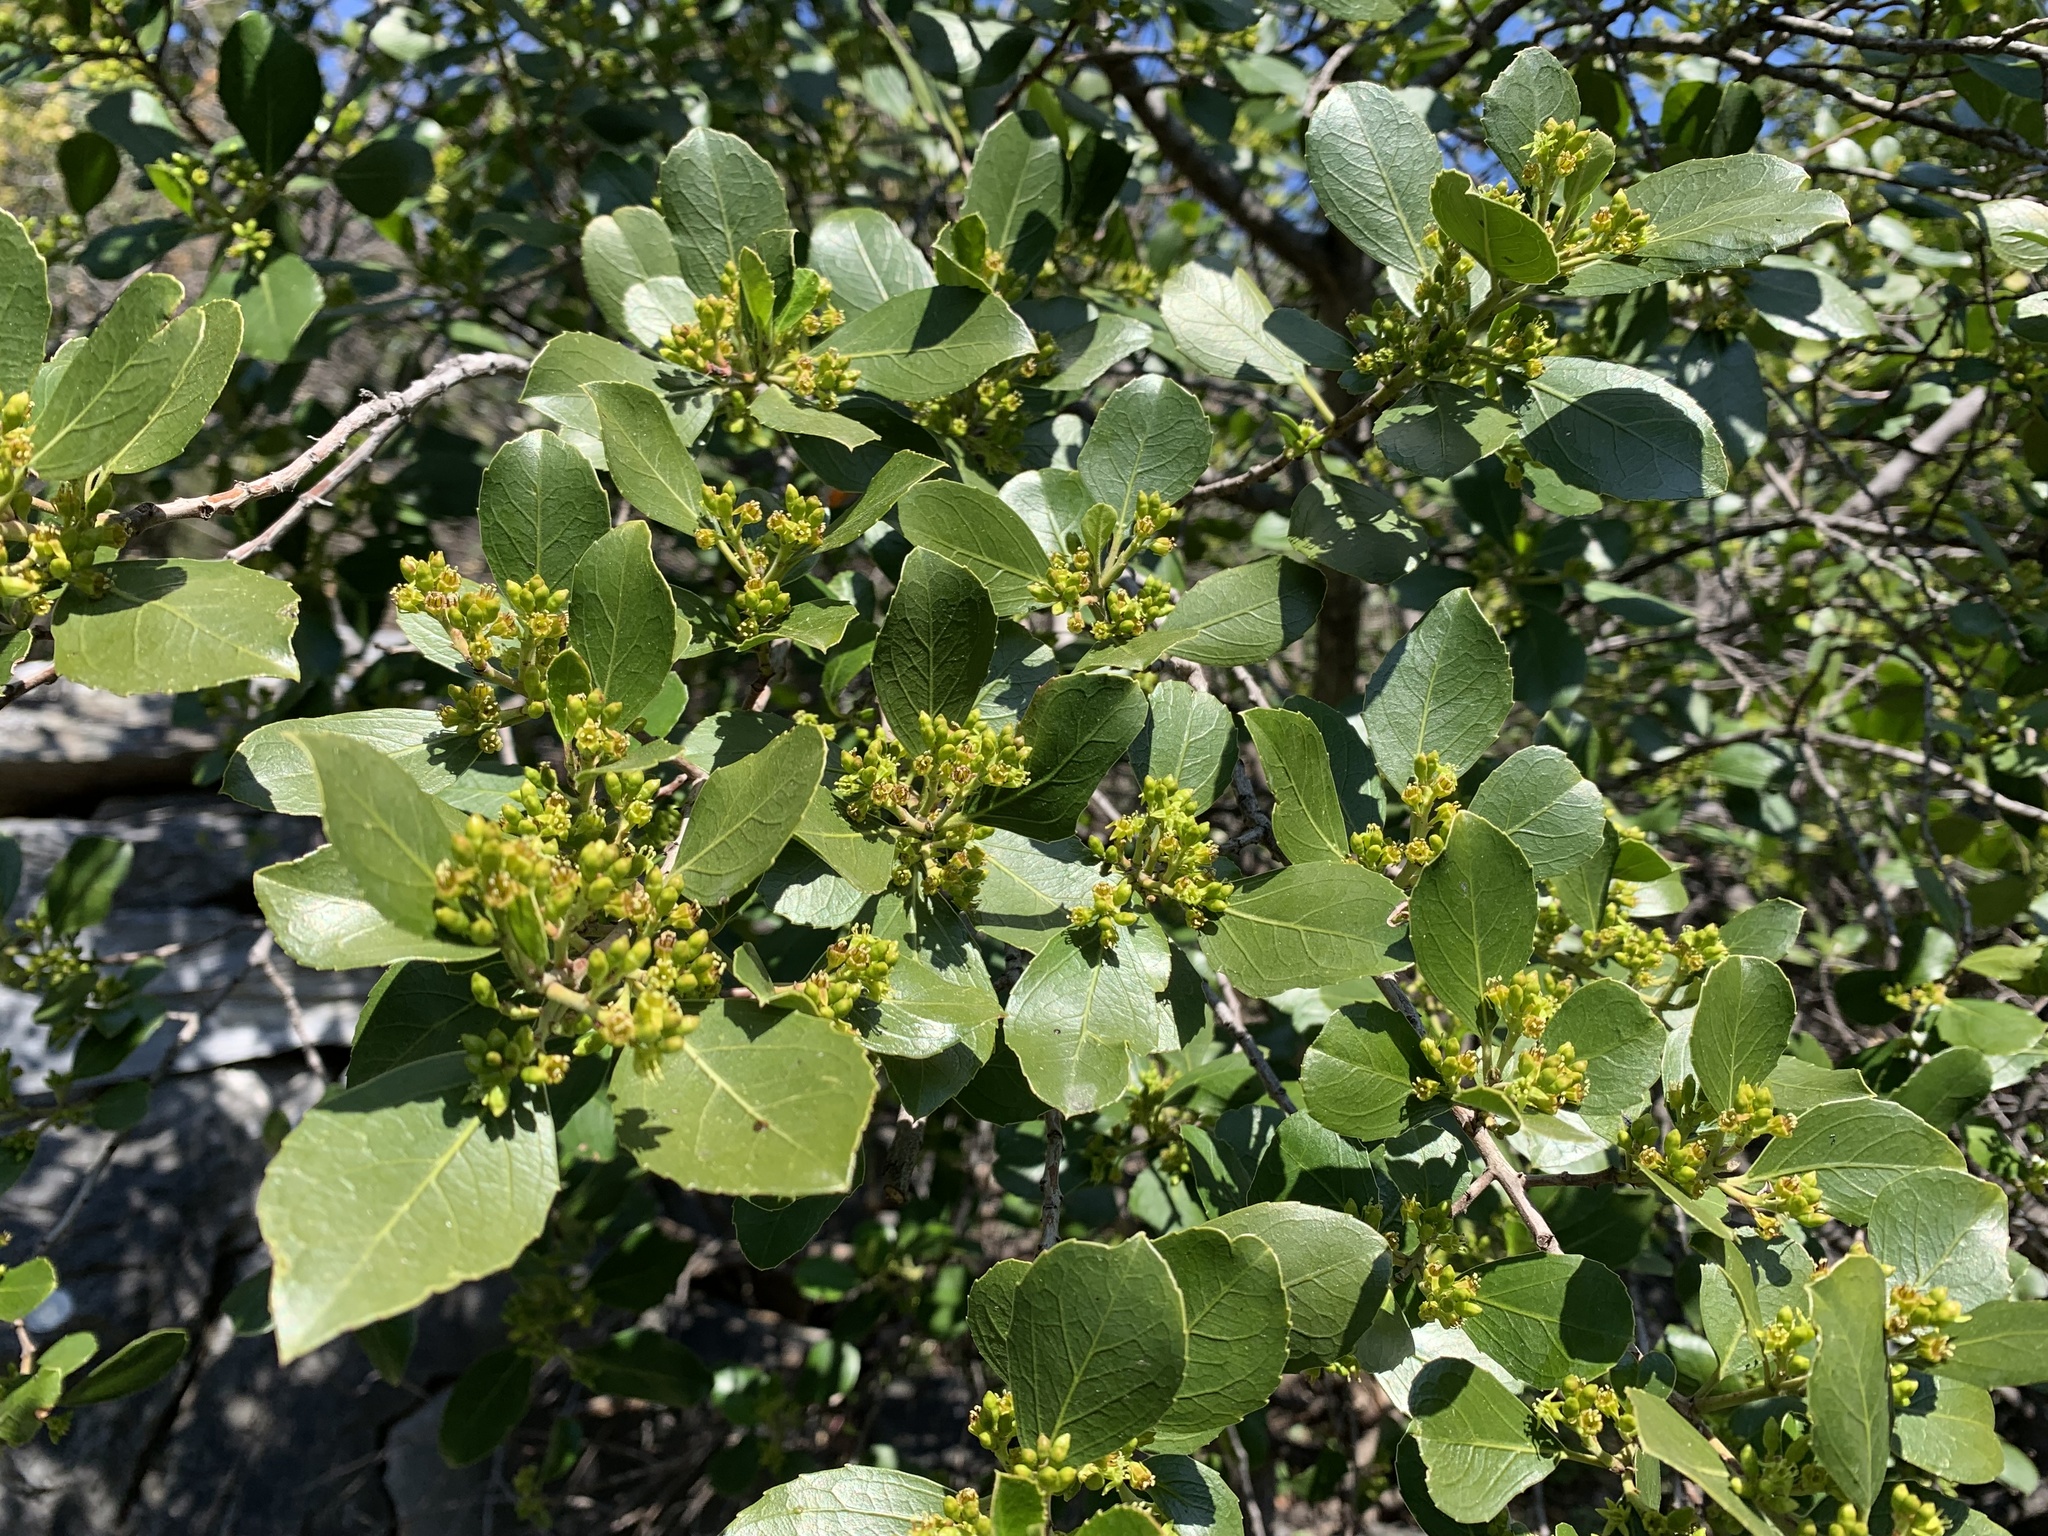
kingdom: Plantae
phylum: Tracheophyta
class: Magnoliopsida
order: Rosales
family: Rhamnaceae
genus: Rhamnus
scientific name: Rhamnus alaternus
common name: Mediterranean buckthorn
